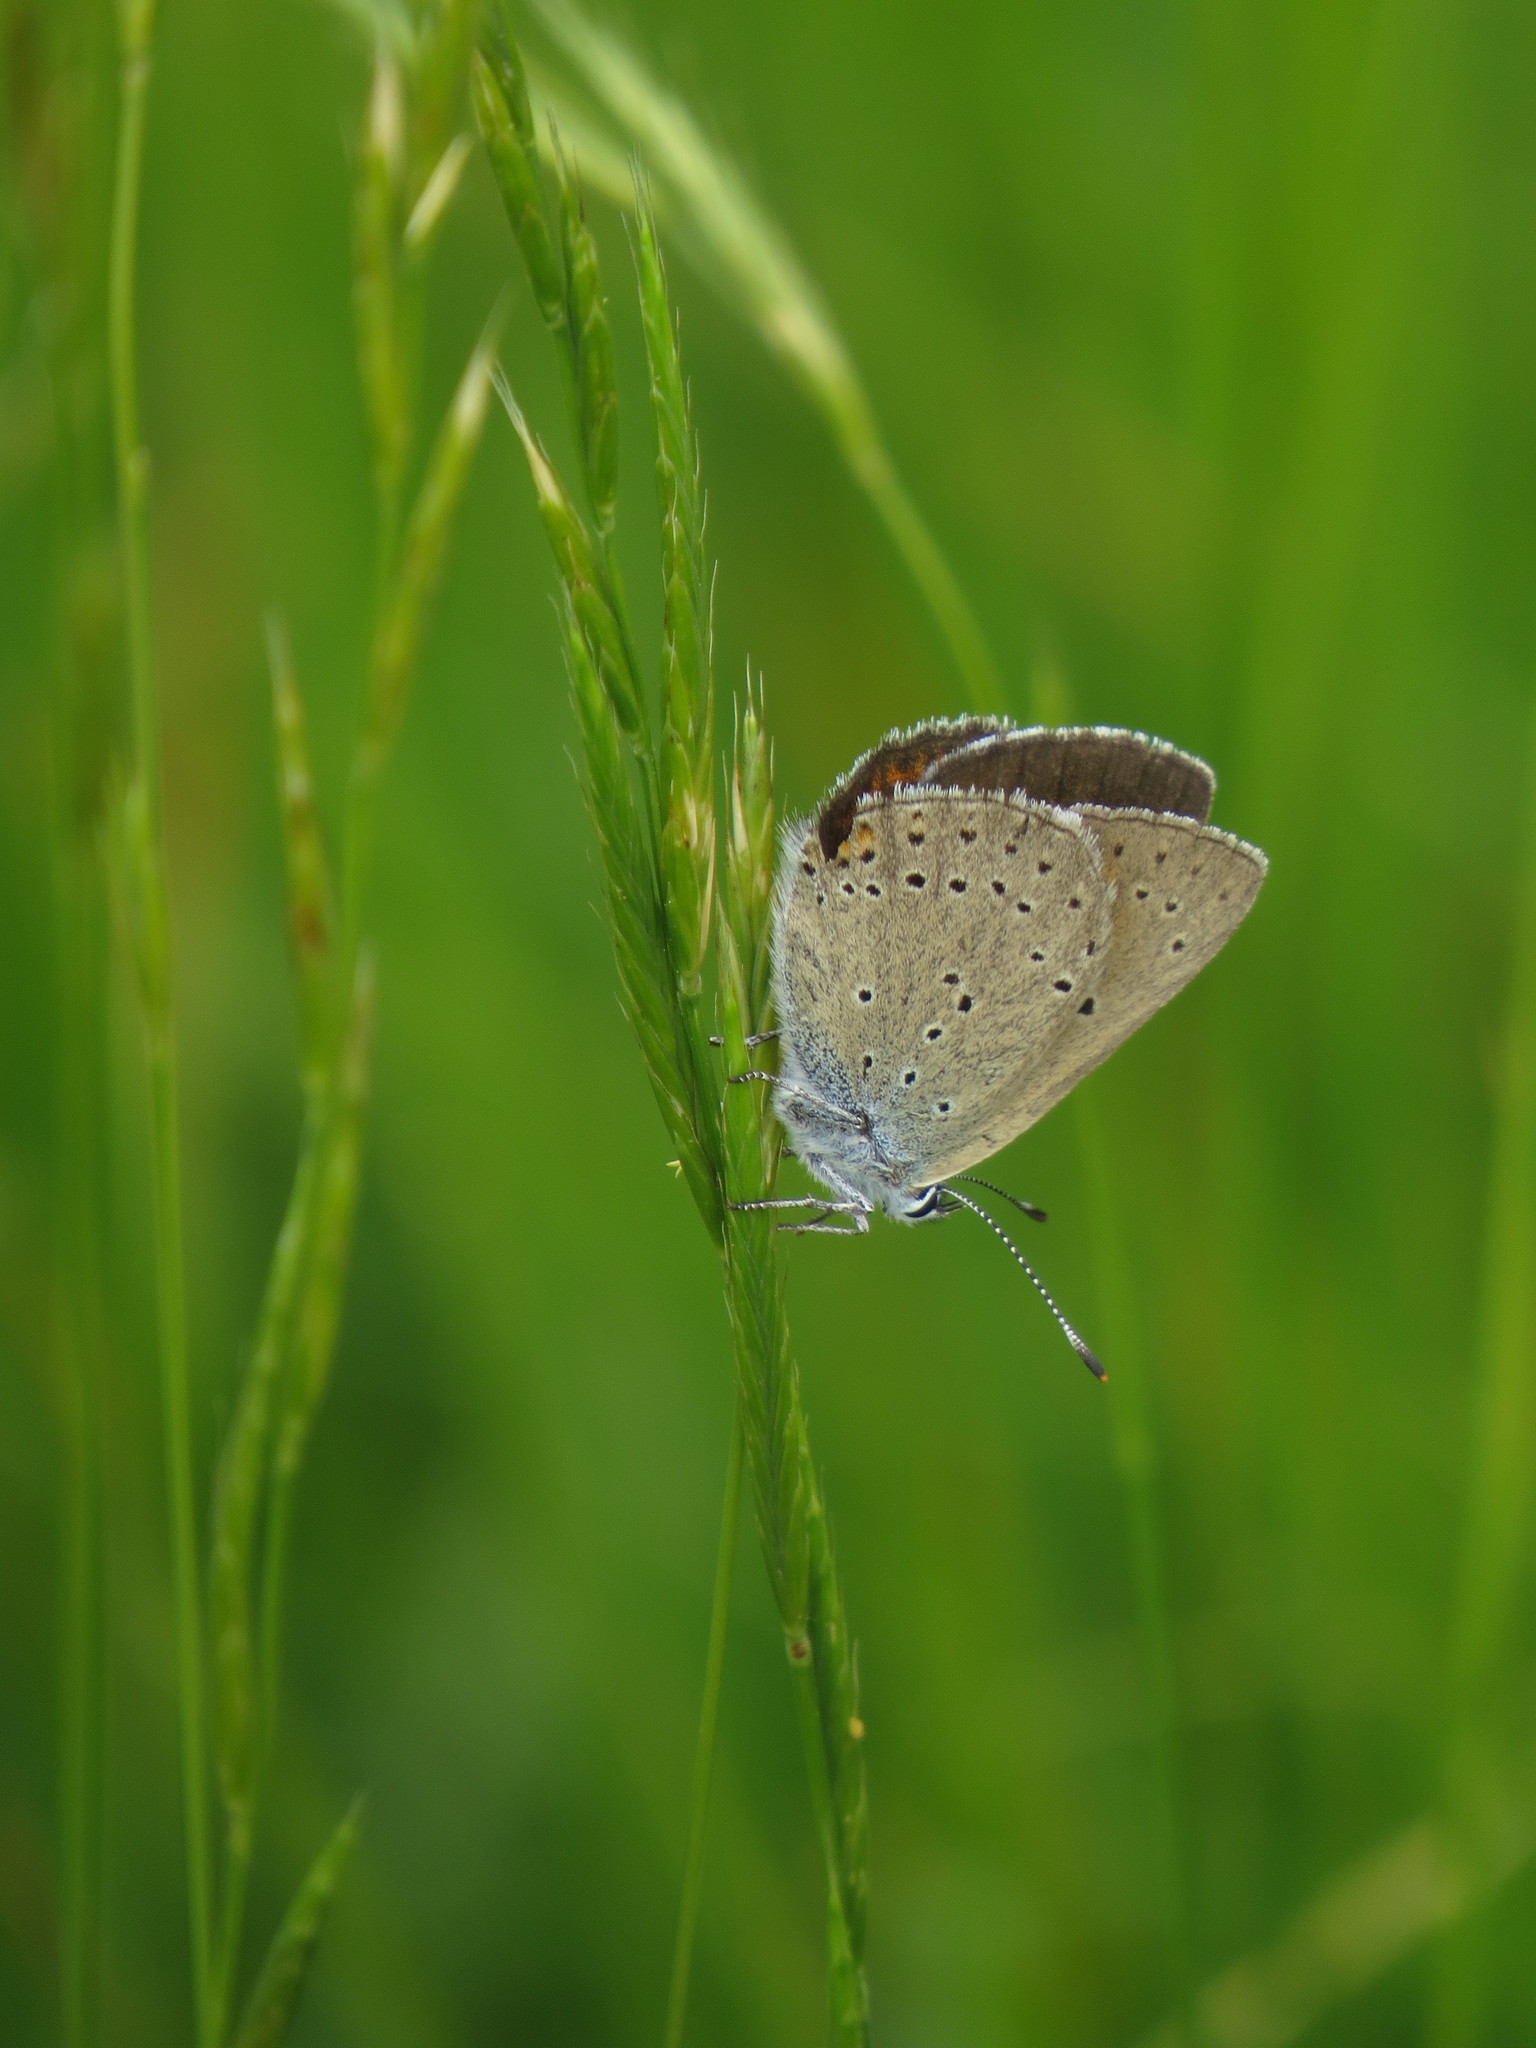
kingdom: Animalia
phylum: Arthropoda
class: Insecta
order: Lepidoptera
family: Lycaenidae
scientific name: Lycaenidae
